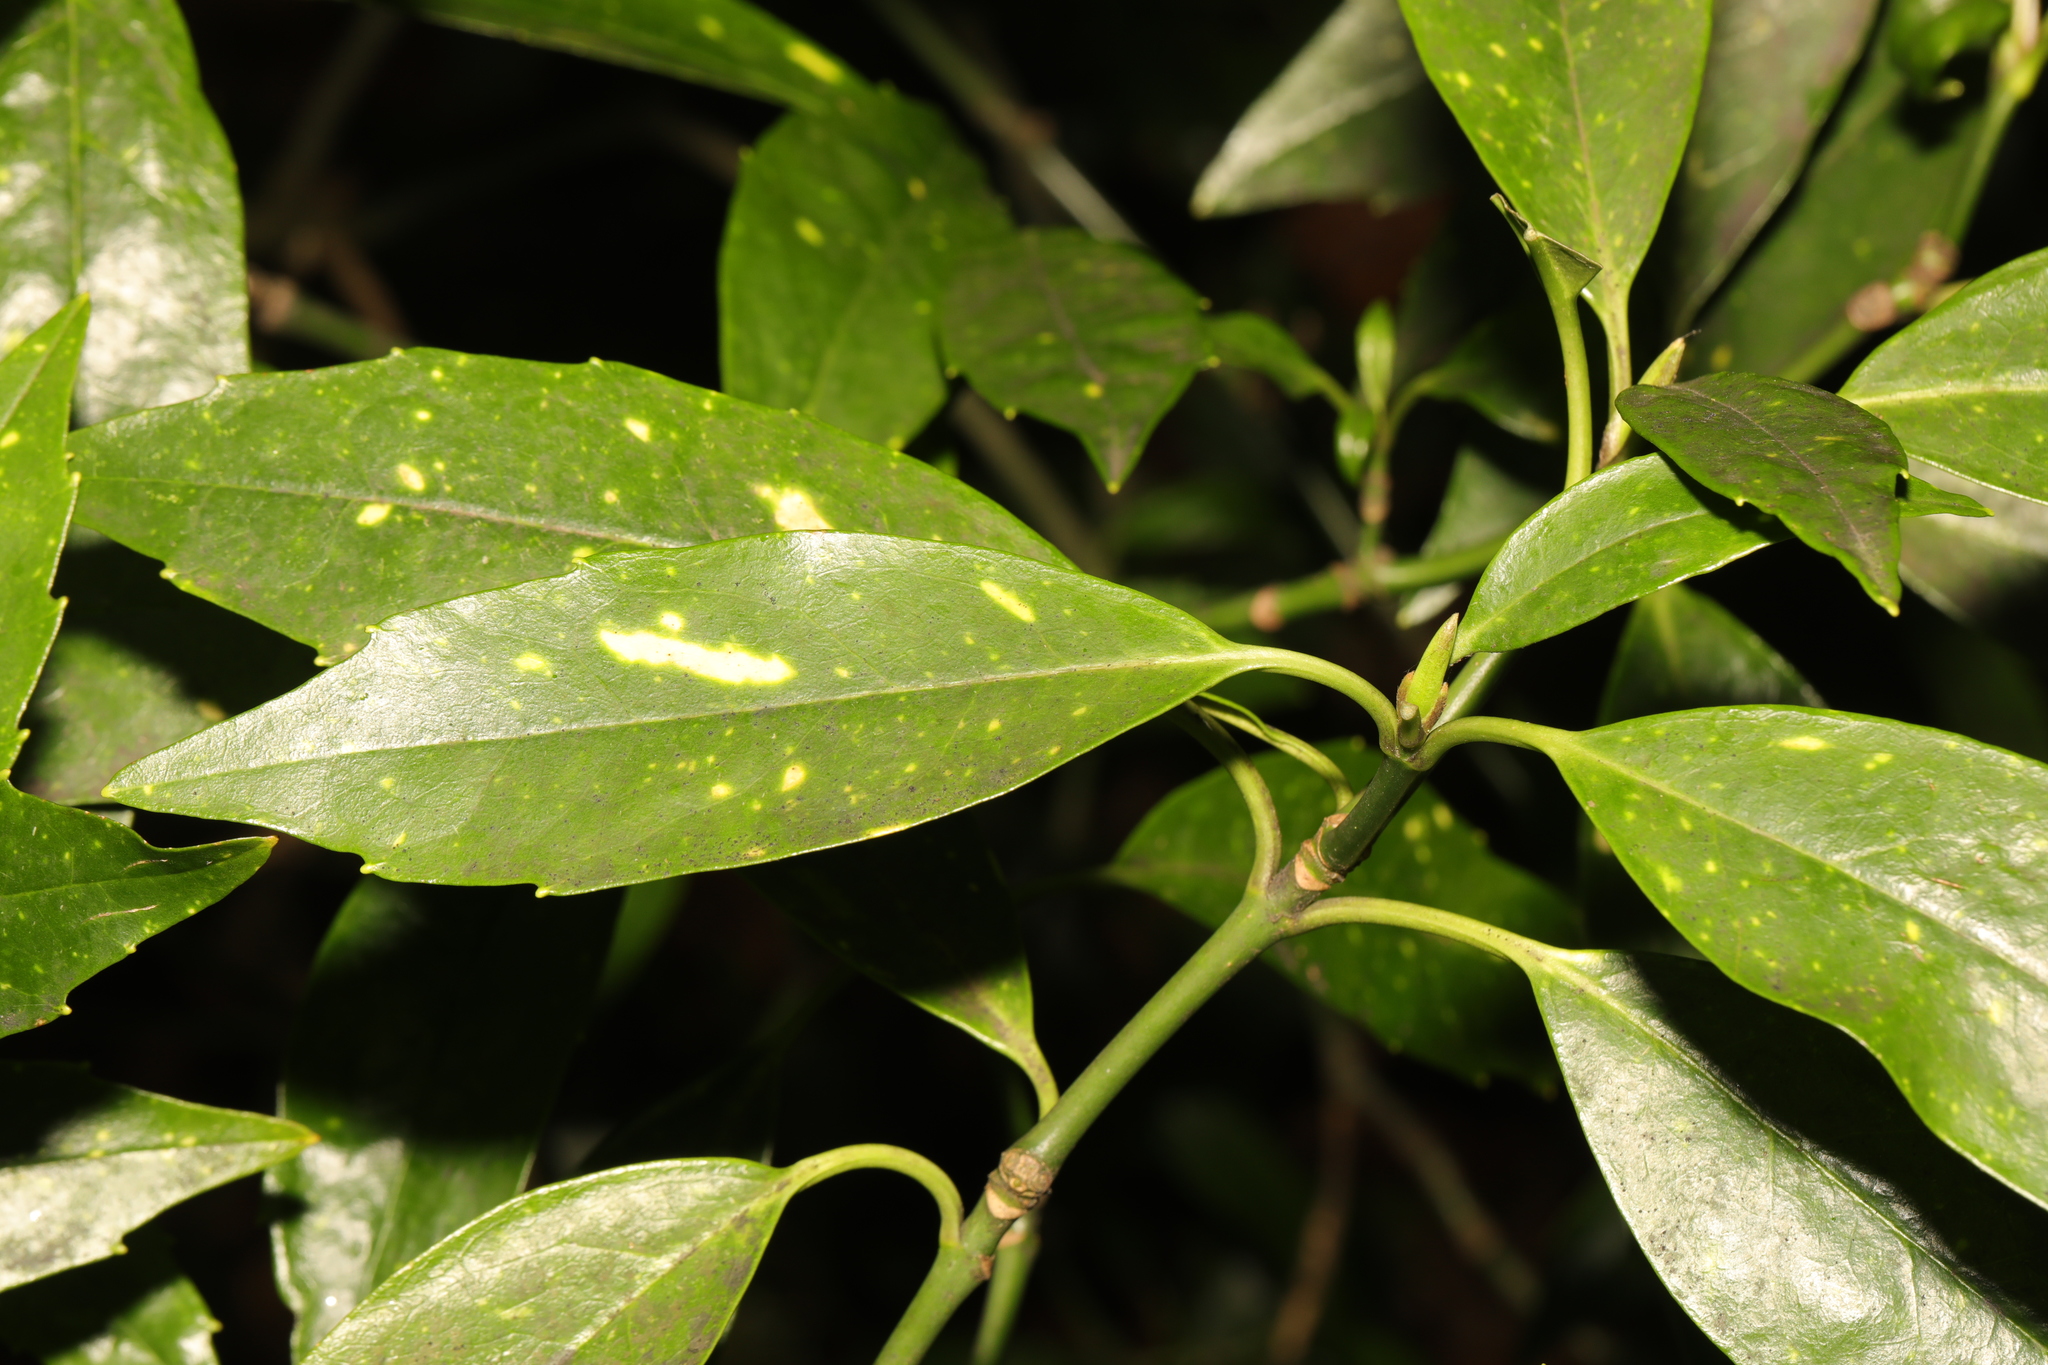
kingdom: Plantae
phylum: Tracheophyta
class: Magnoliopsida
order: Garryales
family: Garryaceae
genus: Aucuba
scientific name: Aucuba japonica
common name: Spotted-laurel
